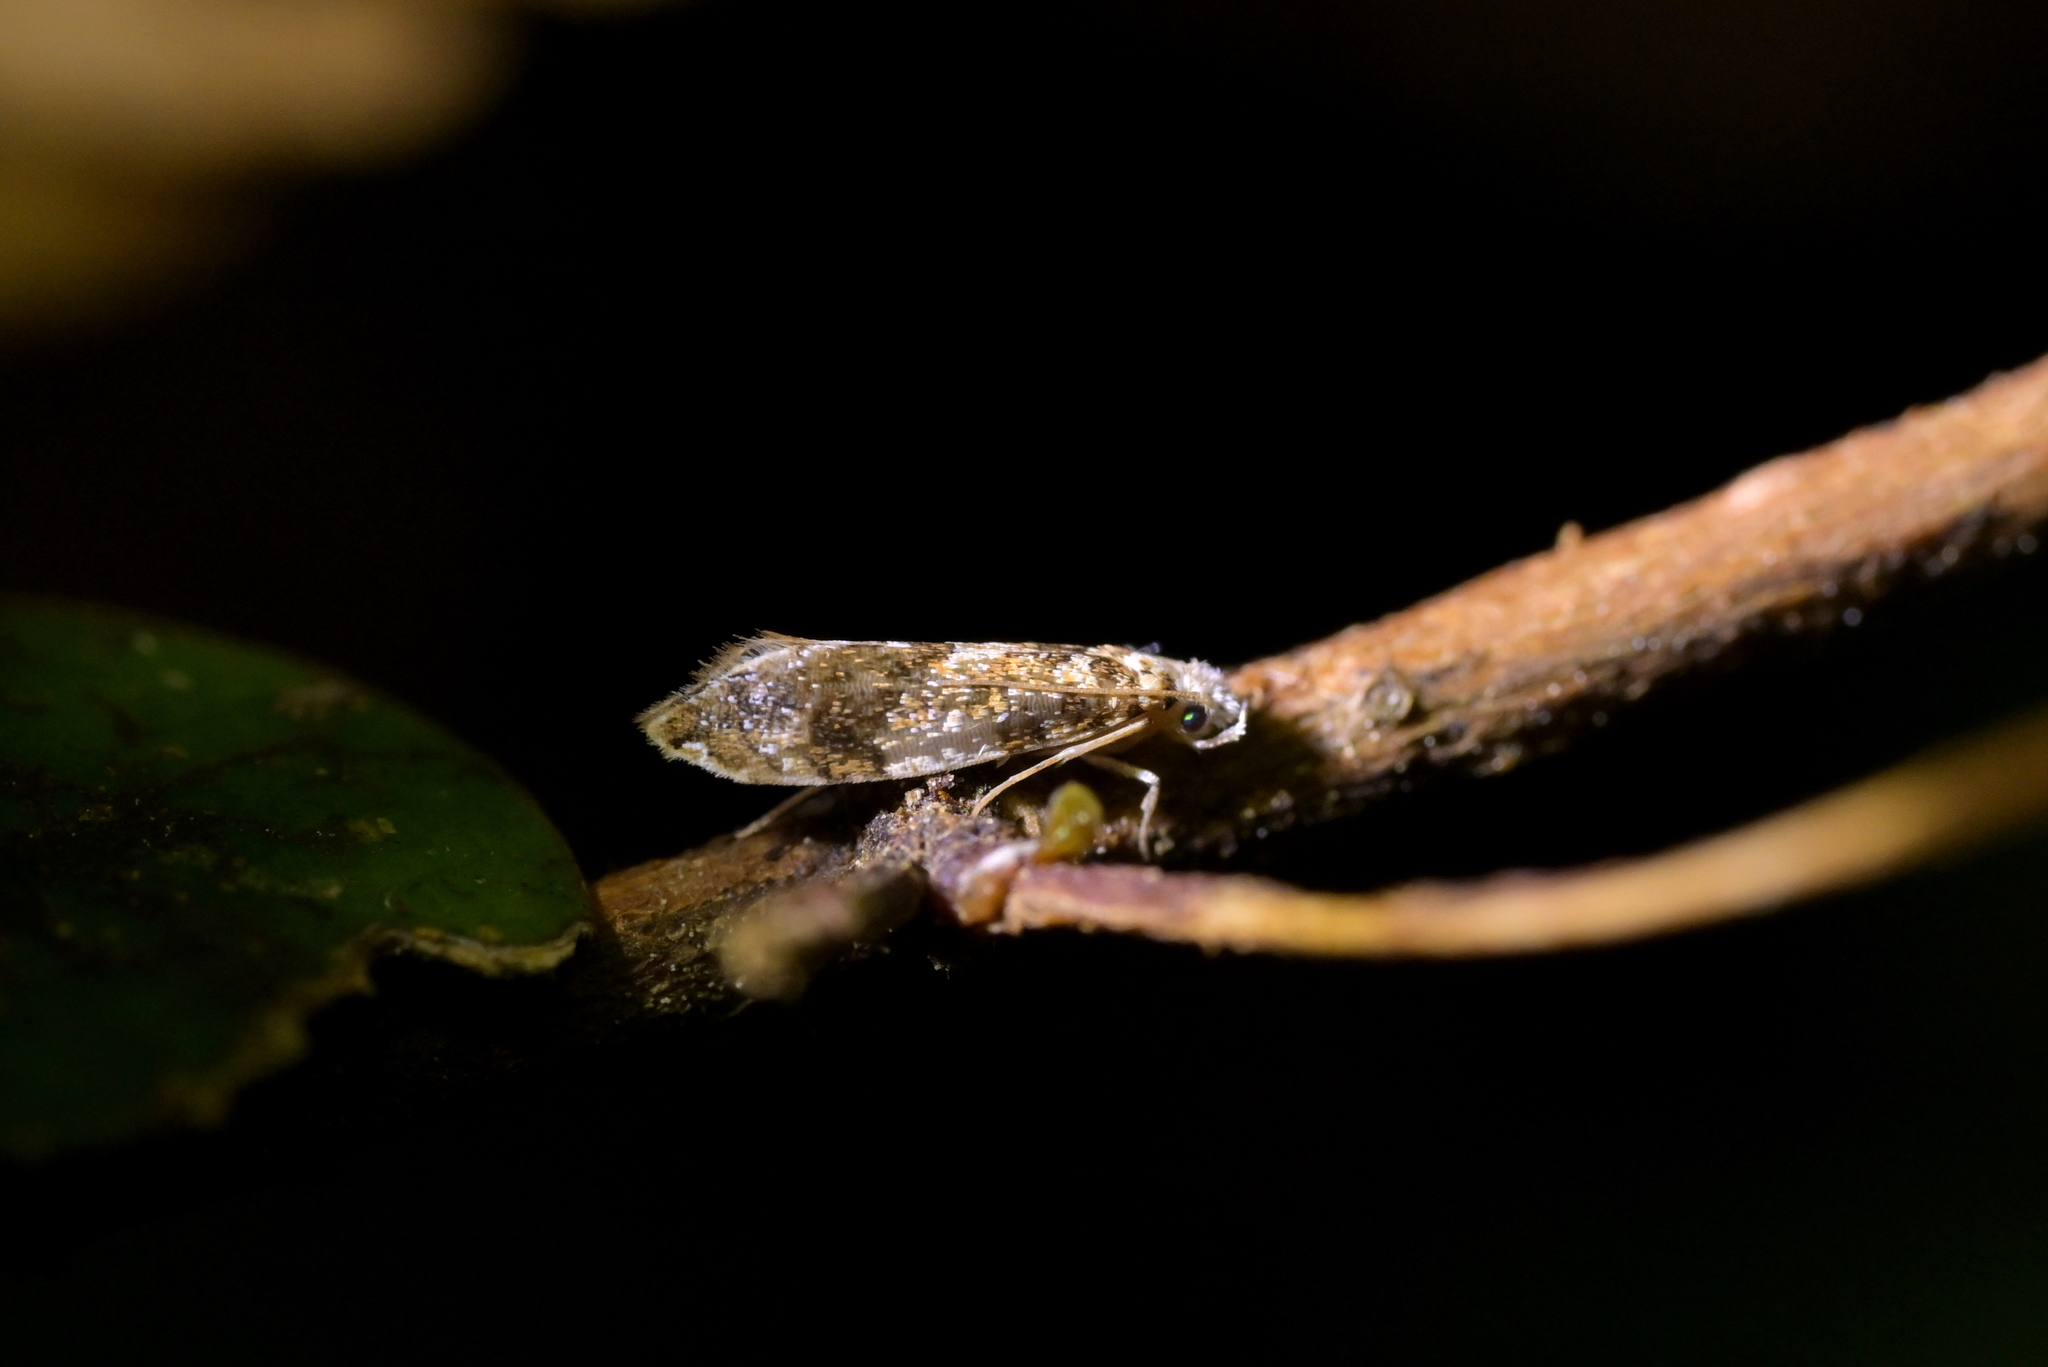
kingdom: Animalia
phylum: Arthropoda
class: Insecta
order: Lepidoptera
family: Tineidae
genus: Eschatotypa
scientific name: Eschatotypa derogatella
